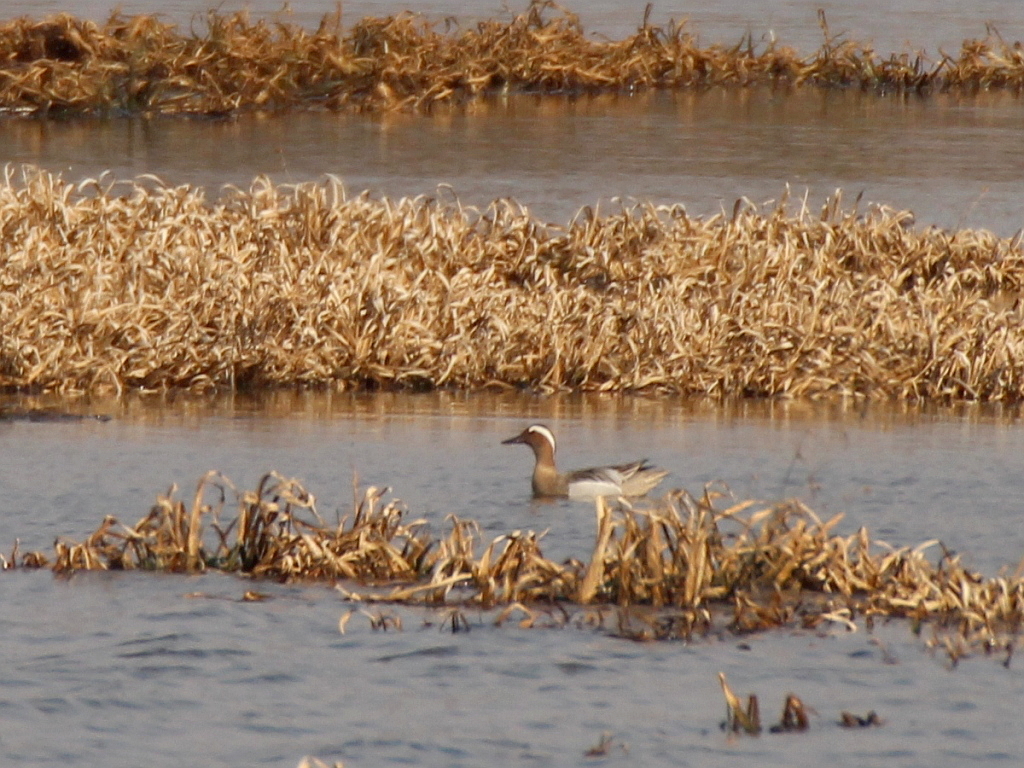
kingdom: Animalia
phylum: Chordata
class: Aves
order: Anseriformes
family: Anatidae
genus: Spatula
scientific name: Spatula querquedula
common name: Garganey
